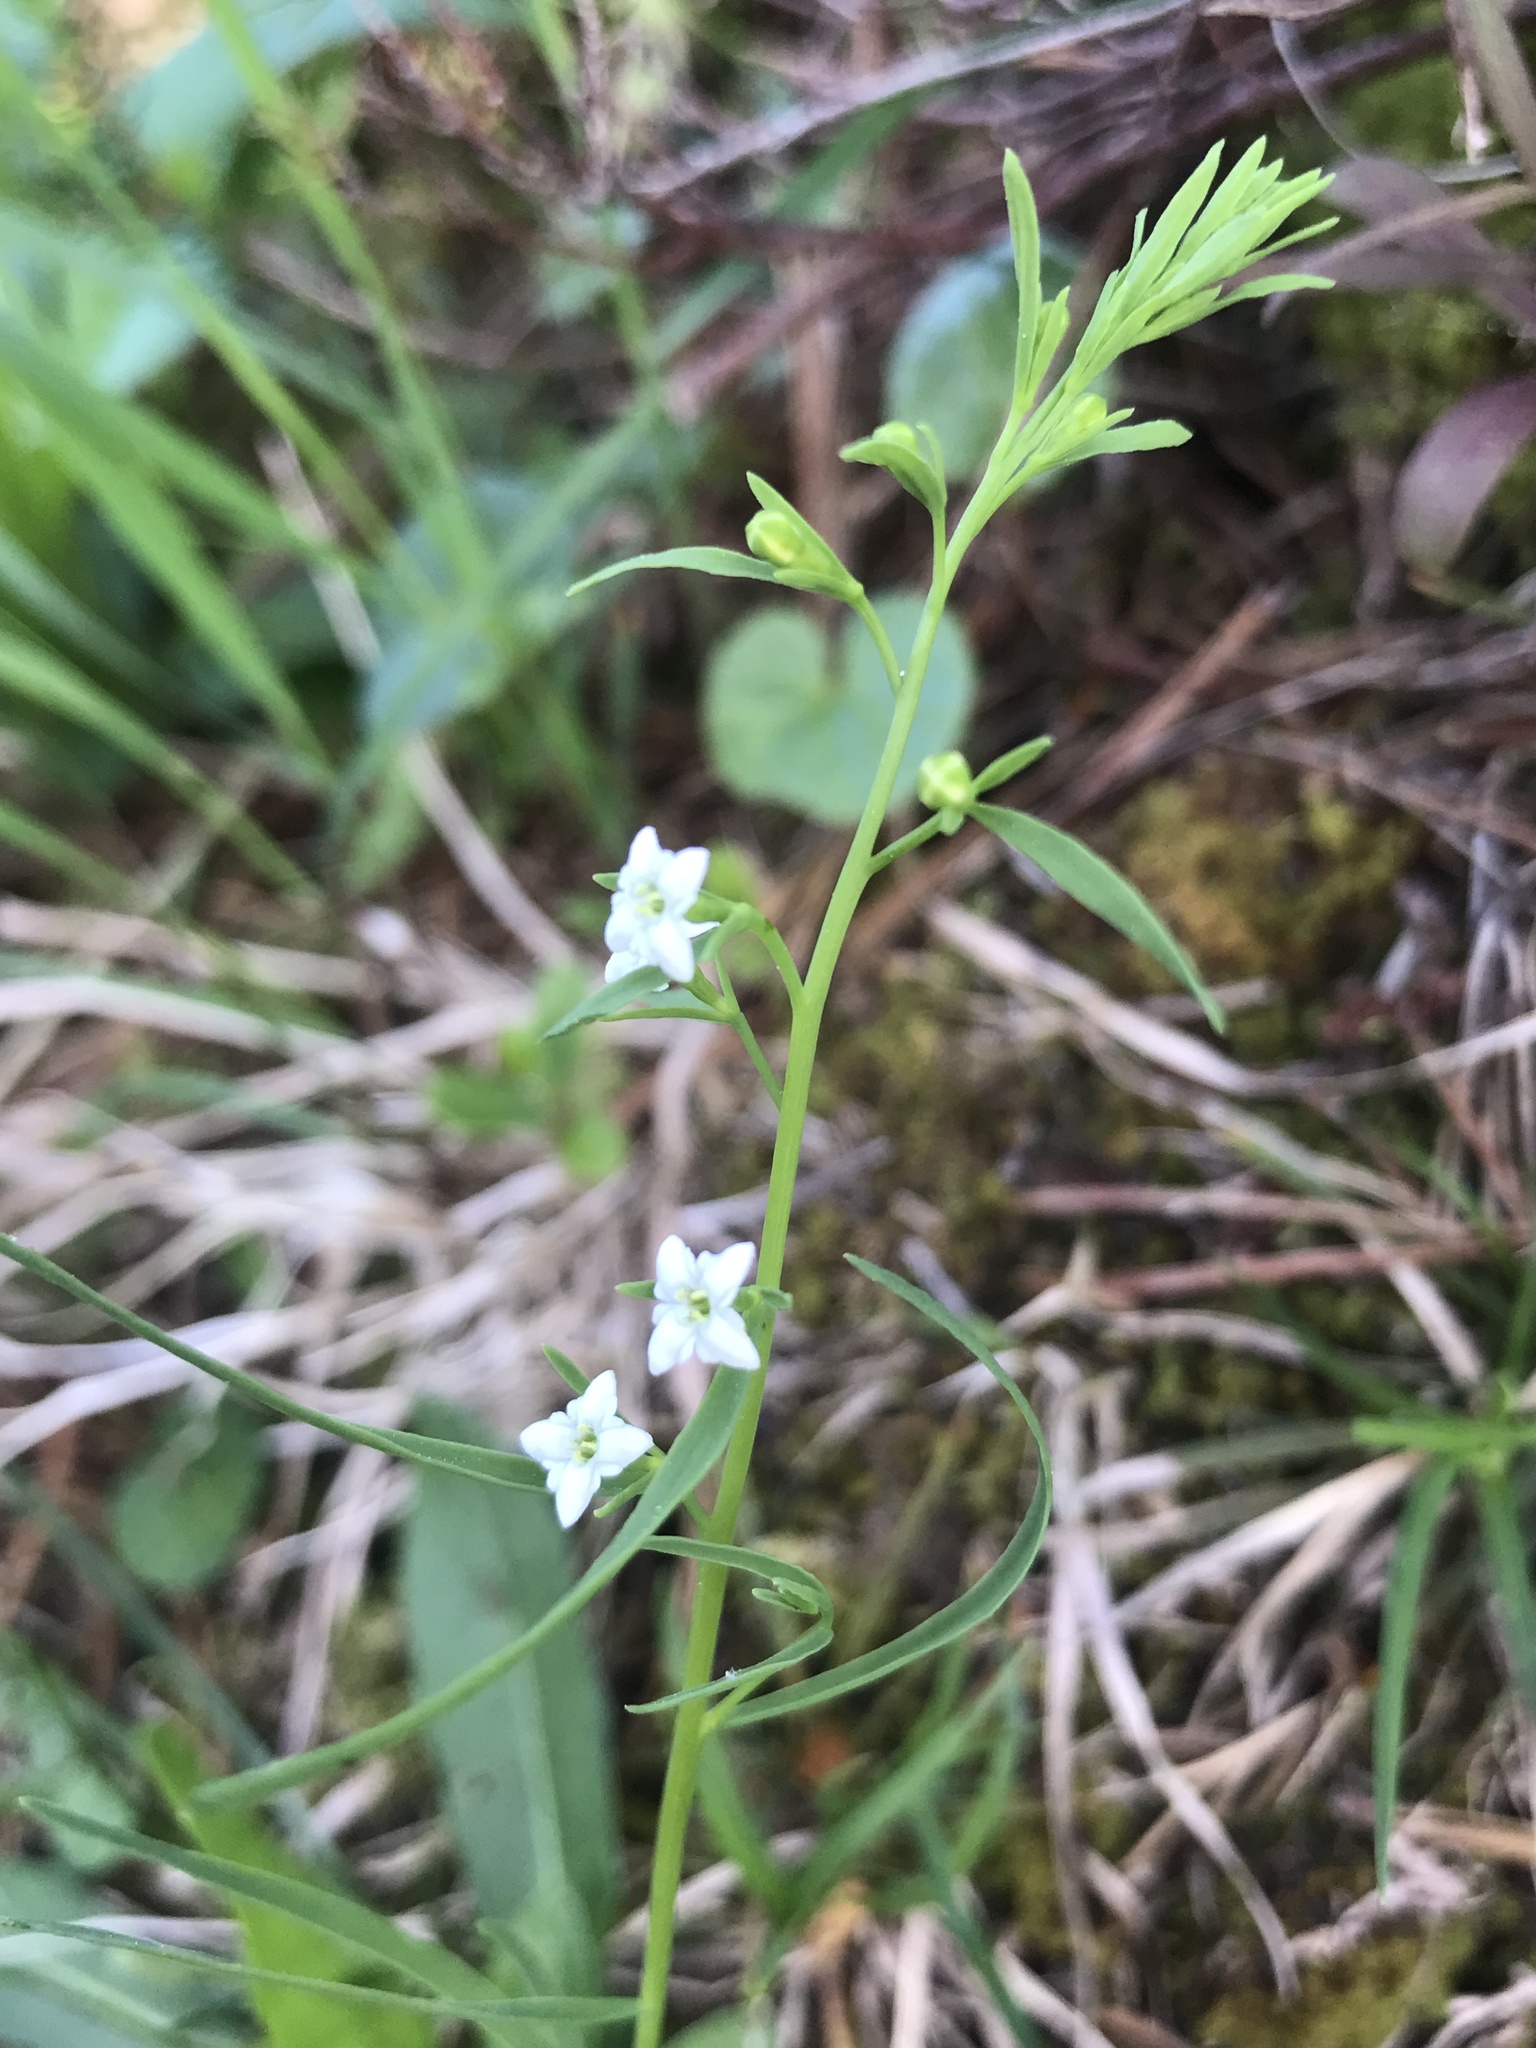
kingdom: Plantae
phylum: Tracheophyta
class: Magnoliopsida
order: Santalales
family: Thesiaceae
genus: Thesium
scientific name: Thesium alpinum
